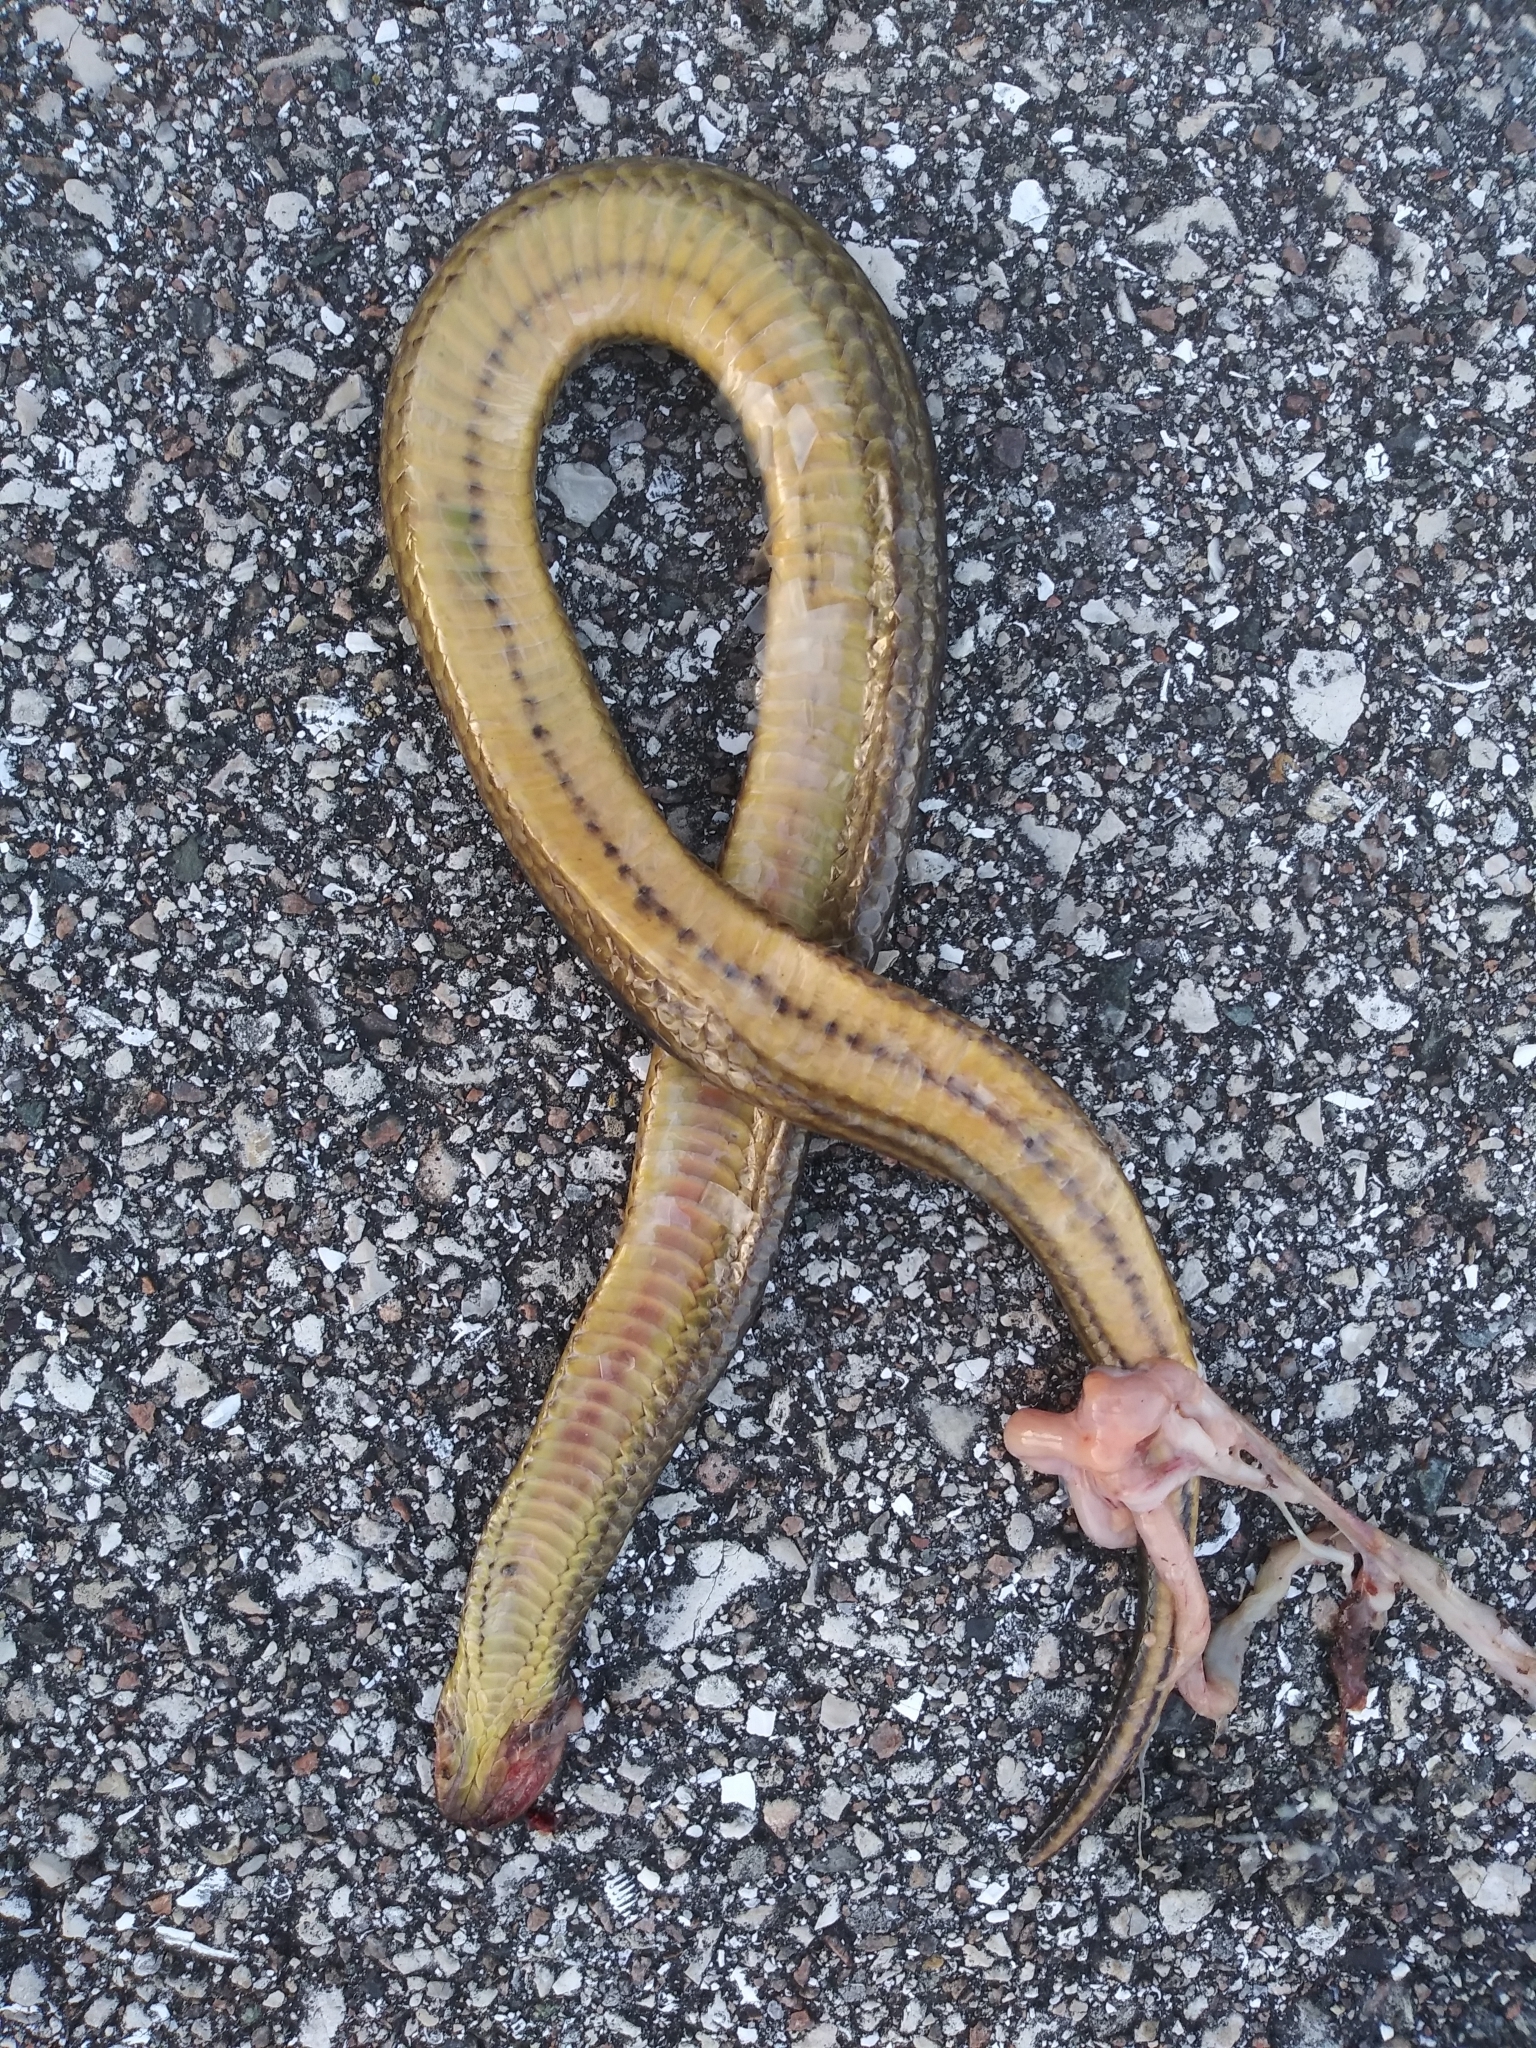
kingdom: Animalia
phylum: Chordata
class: Squamata
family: Colubridae
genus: Liodytes
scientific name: Liodytes alleni
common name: Striped crayfish snake
